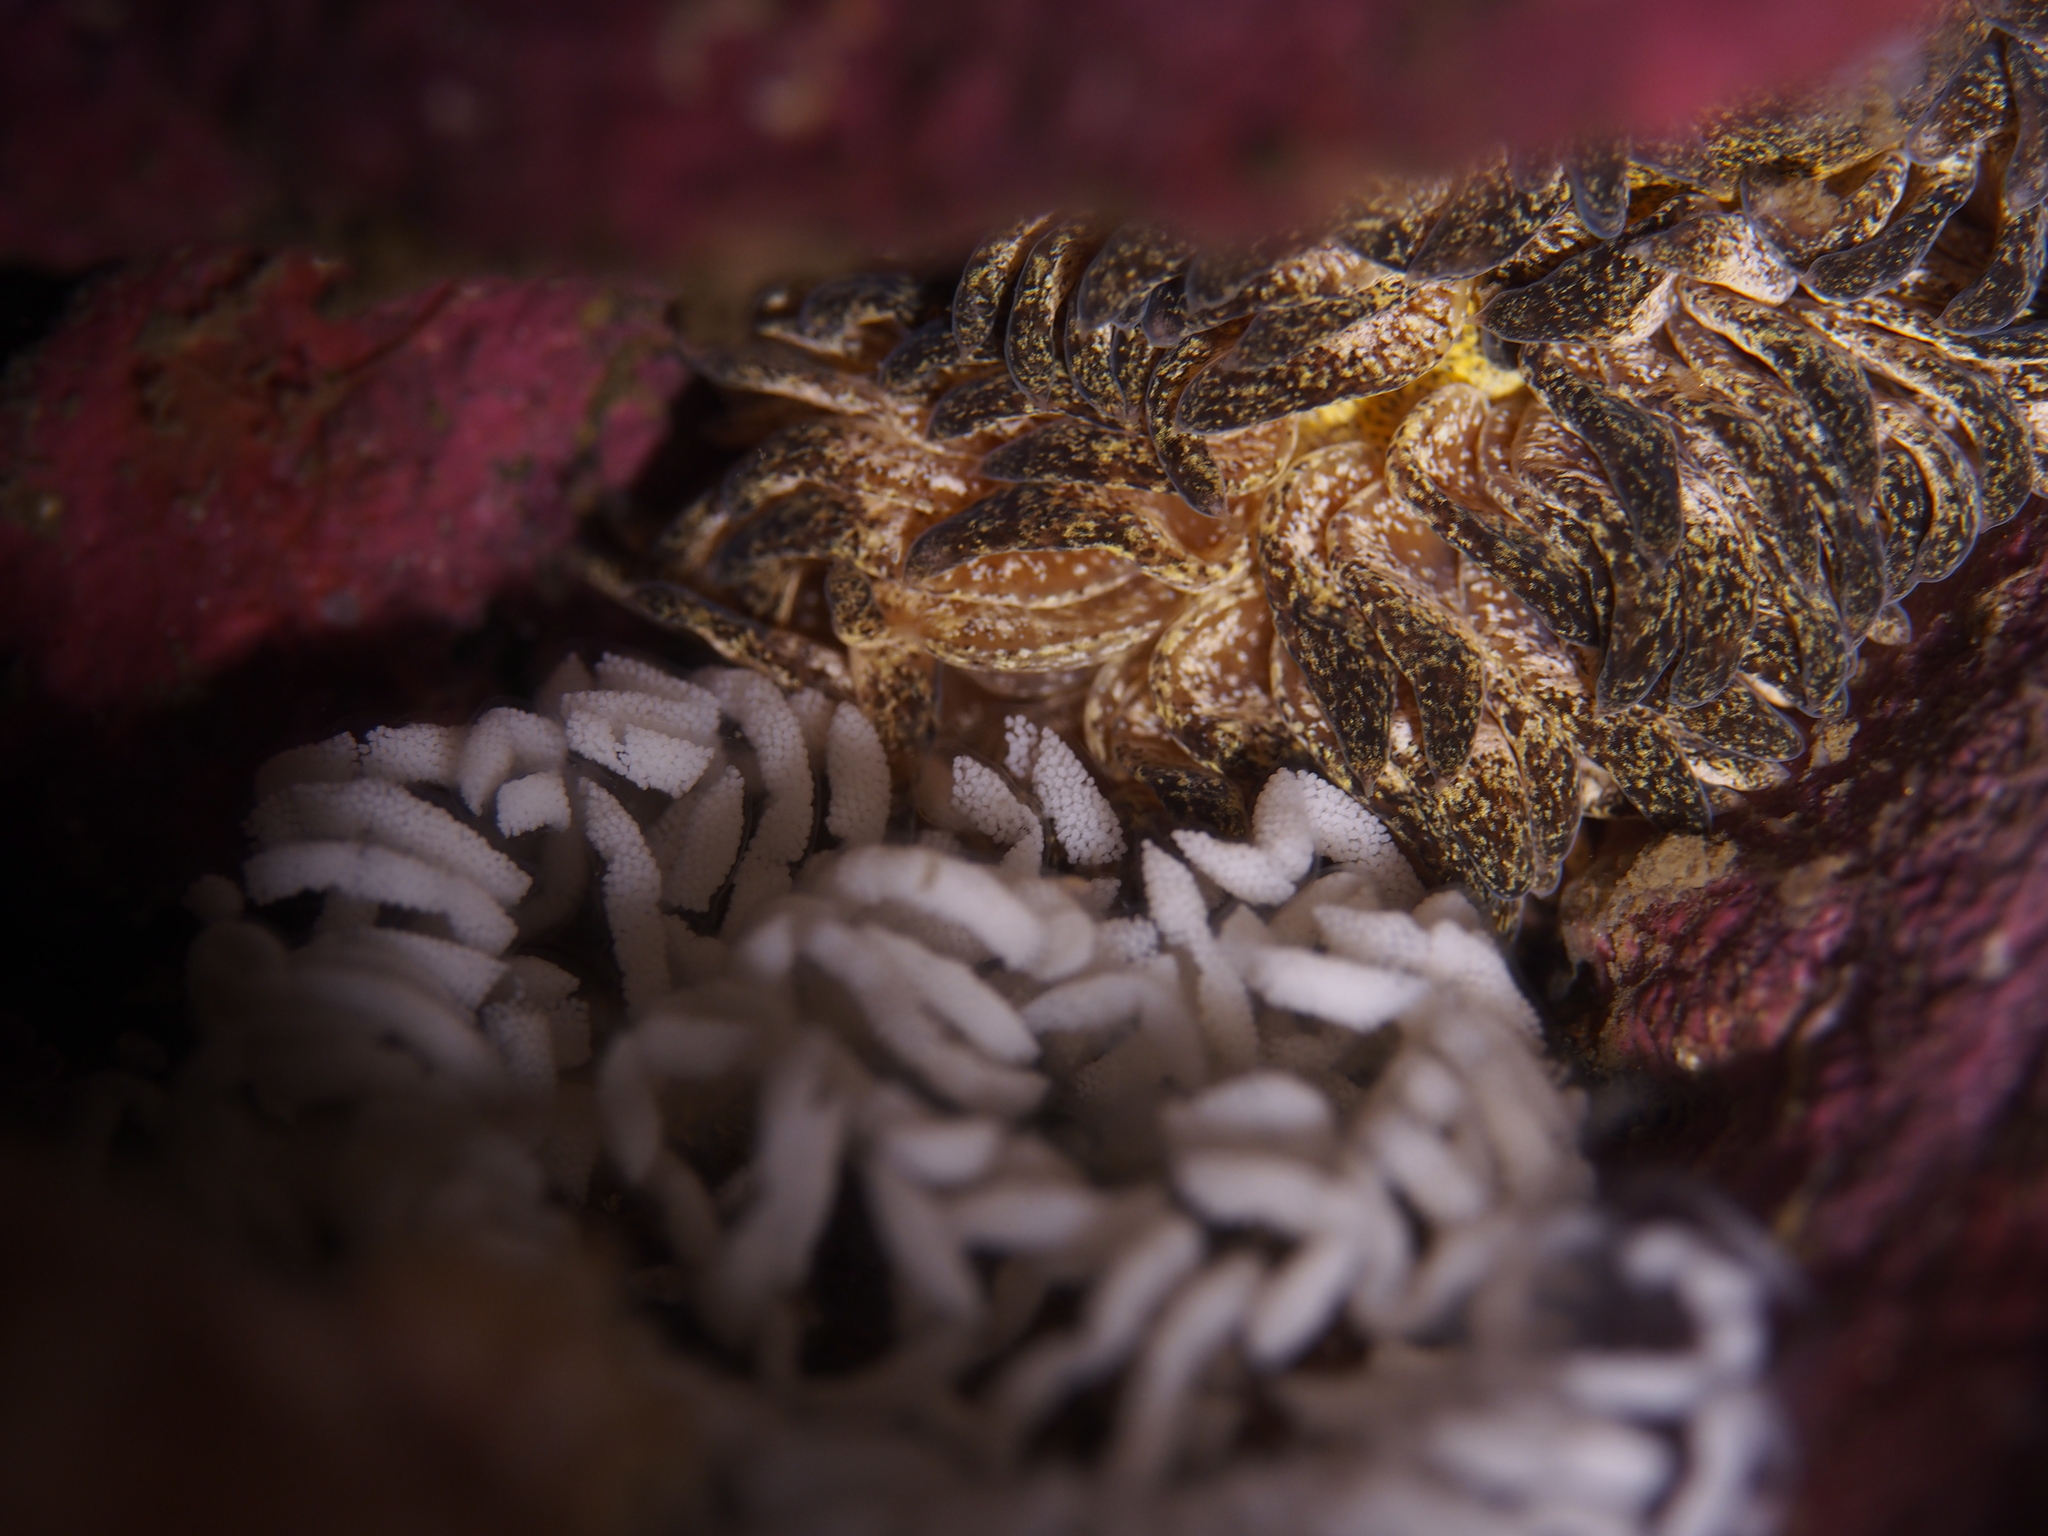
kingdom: Animalia
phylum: Mollusca
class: Gastropoda
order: Nudibranchia
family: Aeolidiidae
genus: Aeolidia
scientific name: Aeolidia papillosa
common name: Common grey sea slug
